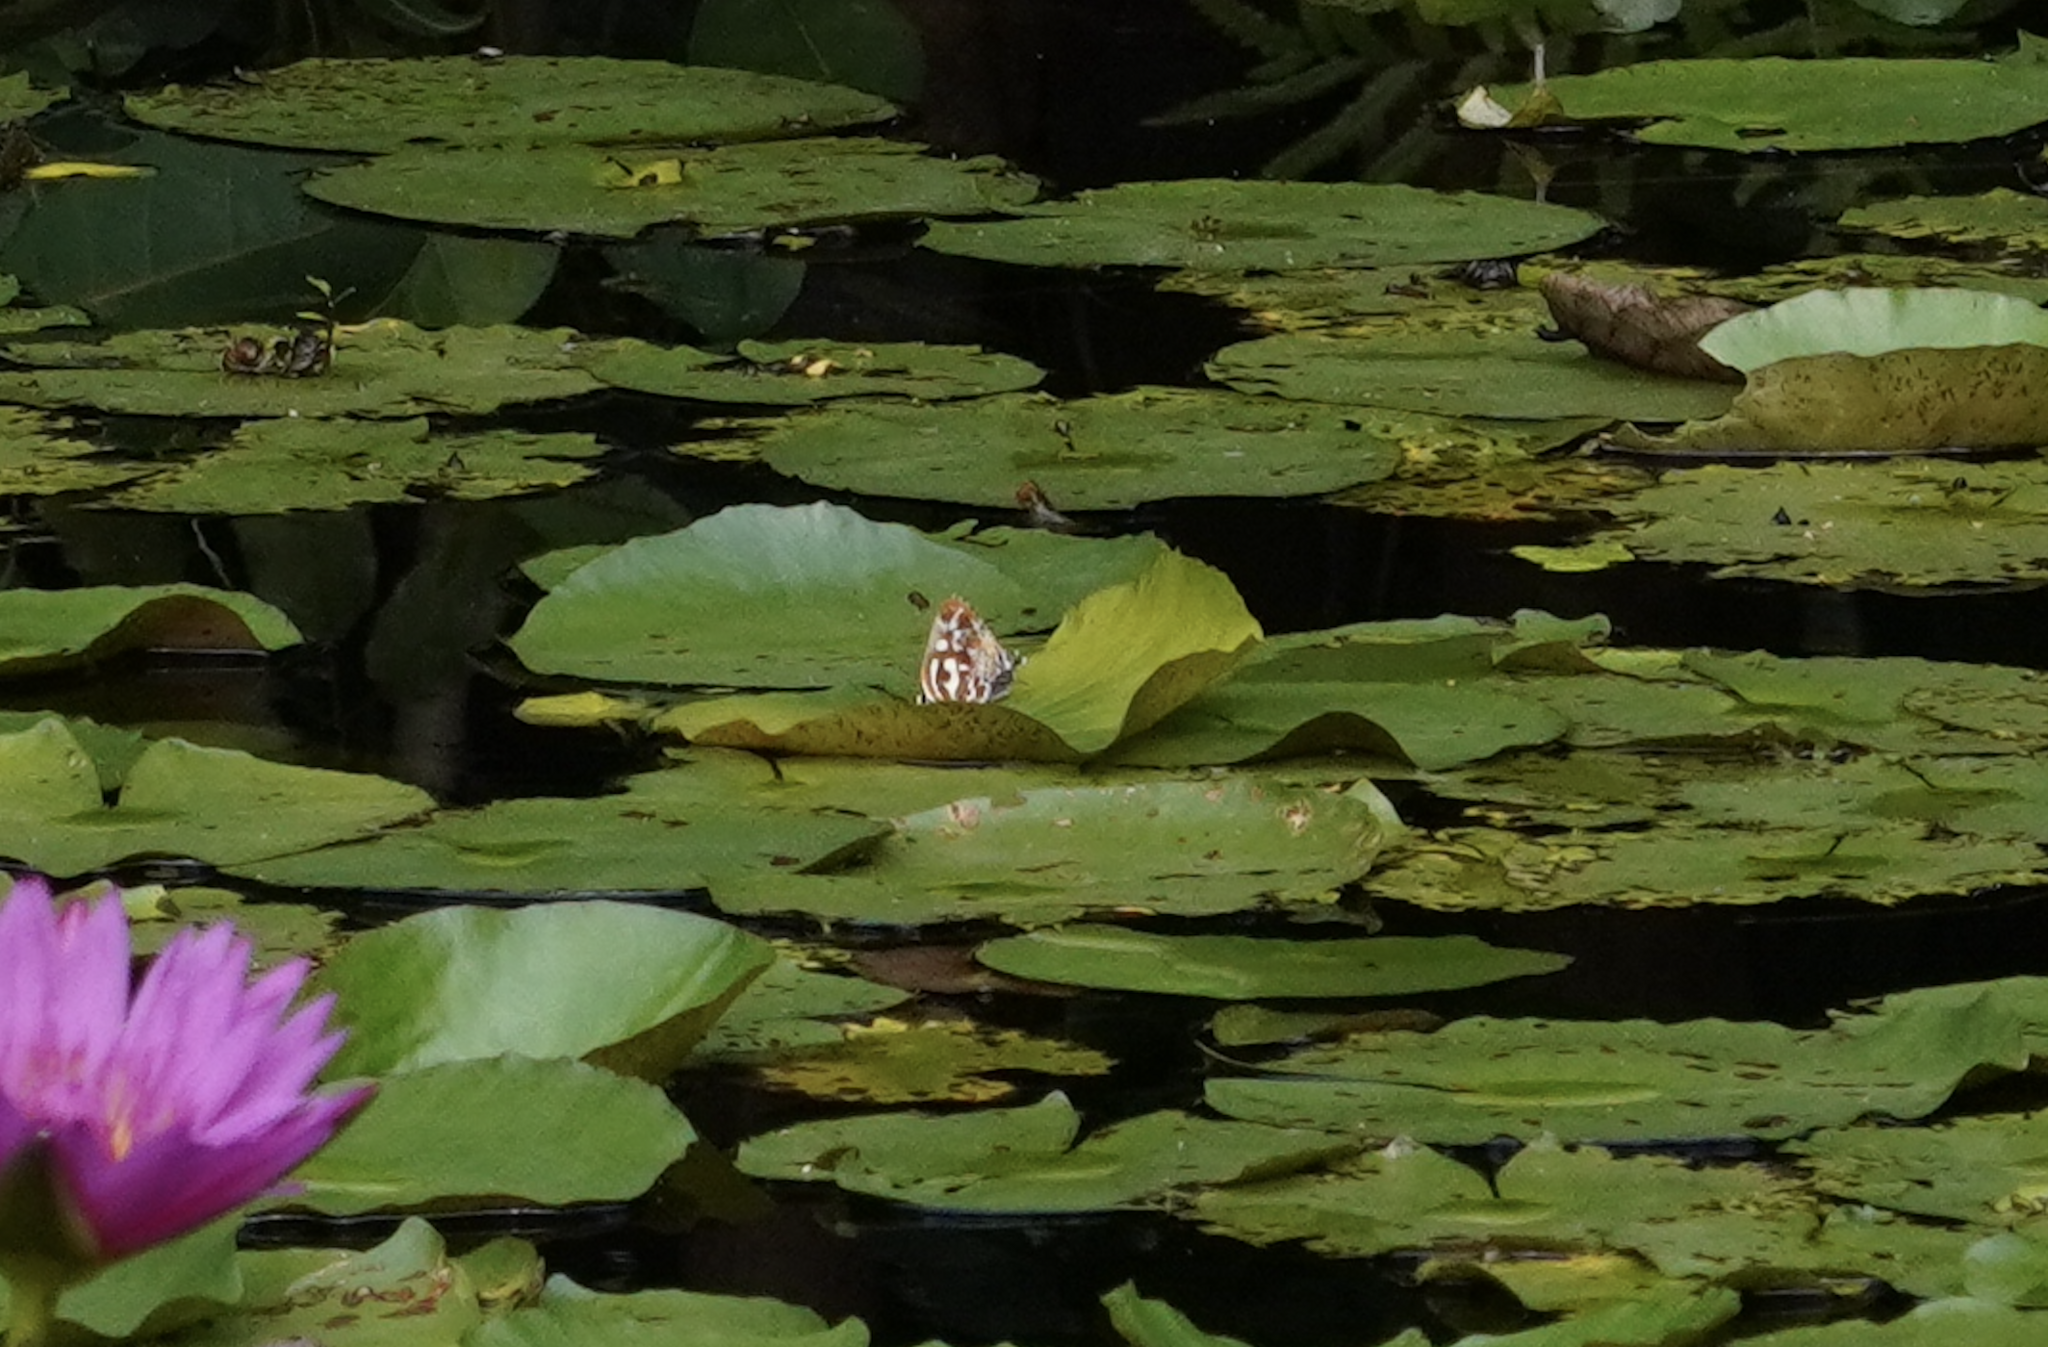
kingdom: Animalia
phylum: Arthropoda
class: Insecta
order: Lepidoptera
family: Lycaenidae
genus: Iraota
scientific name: Iraota timoleon
